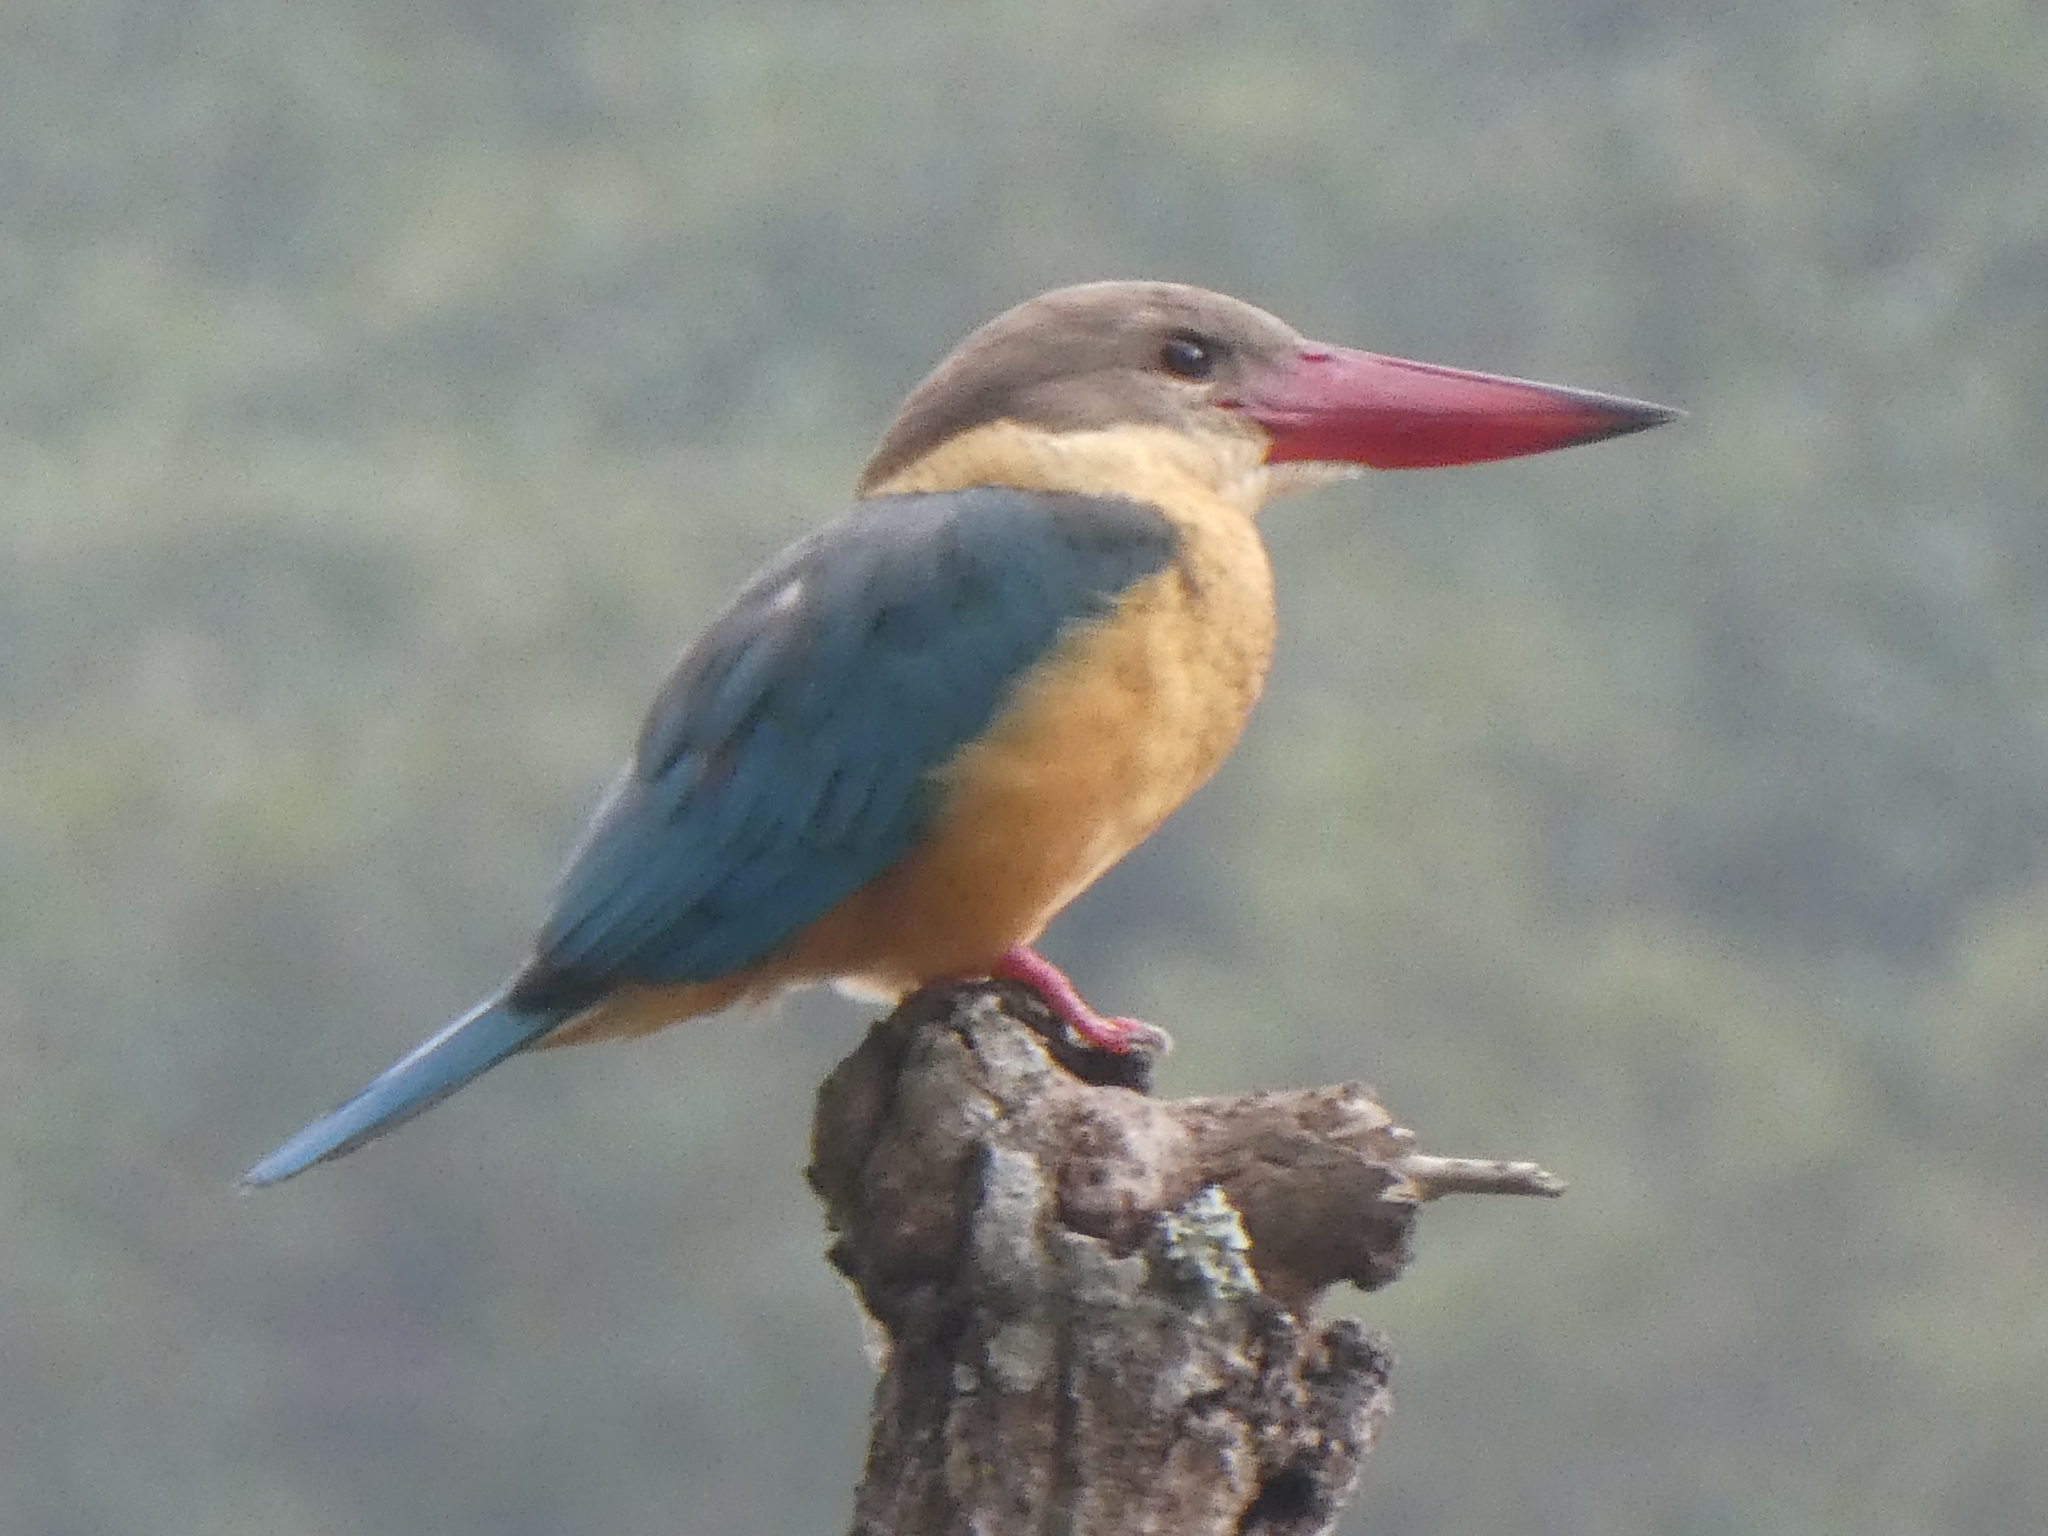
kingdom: Animalia
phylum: Chordata
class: Aves
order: Coraciiformes
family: Alcedinidae
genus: Pelargopsis
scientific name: Pelargopsis capensis
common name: Stork-billed kingfisher
